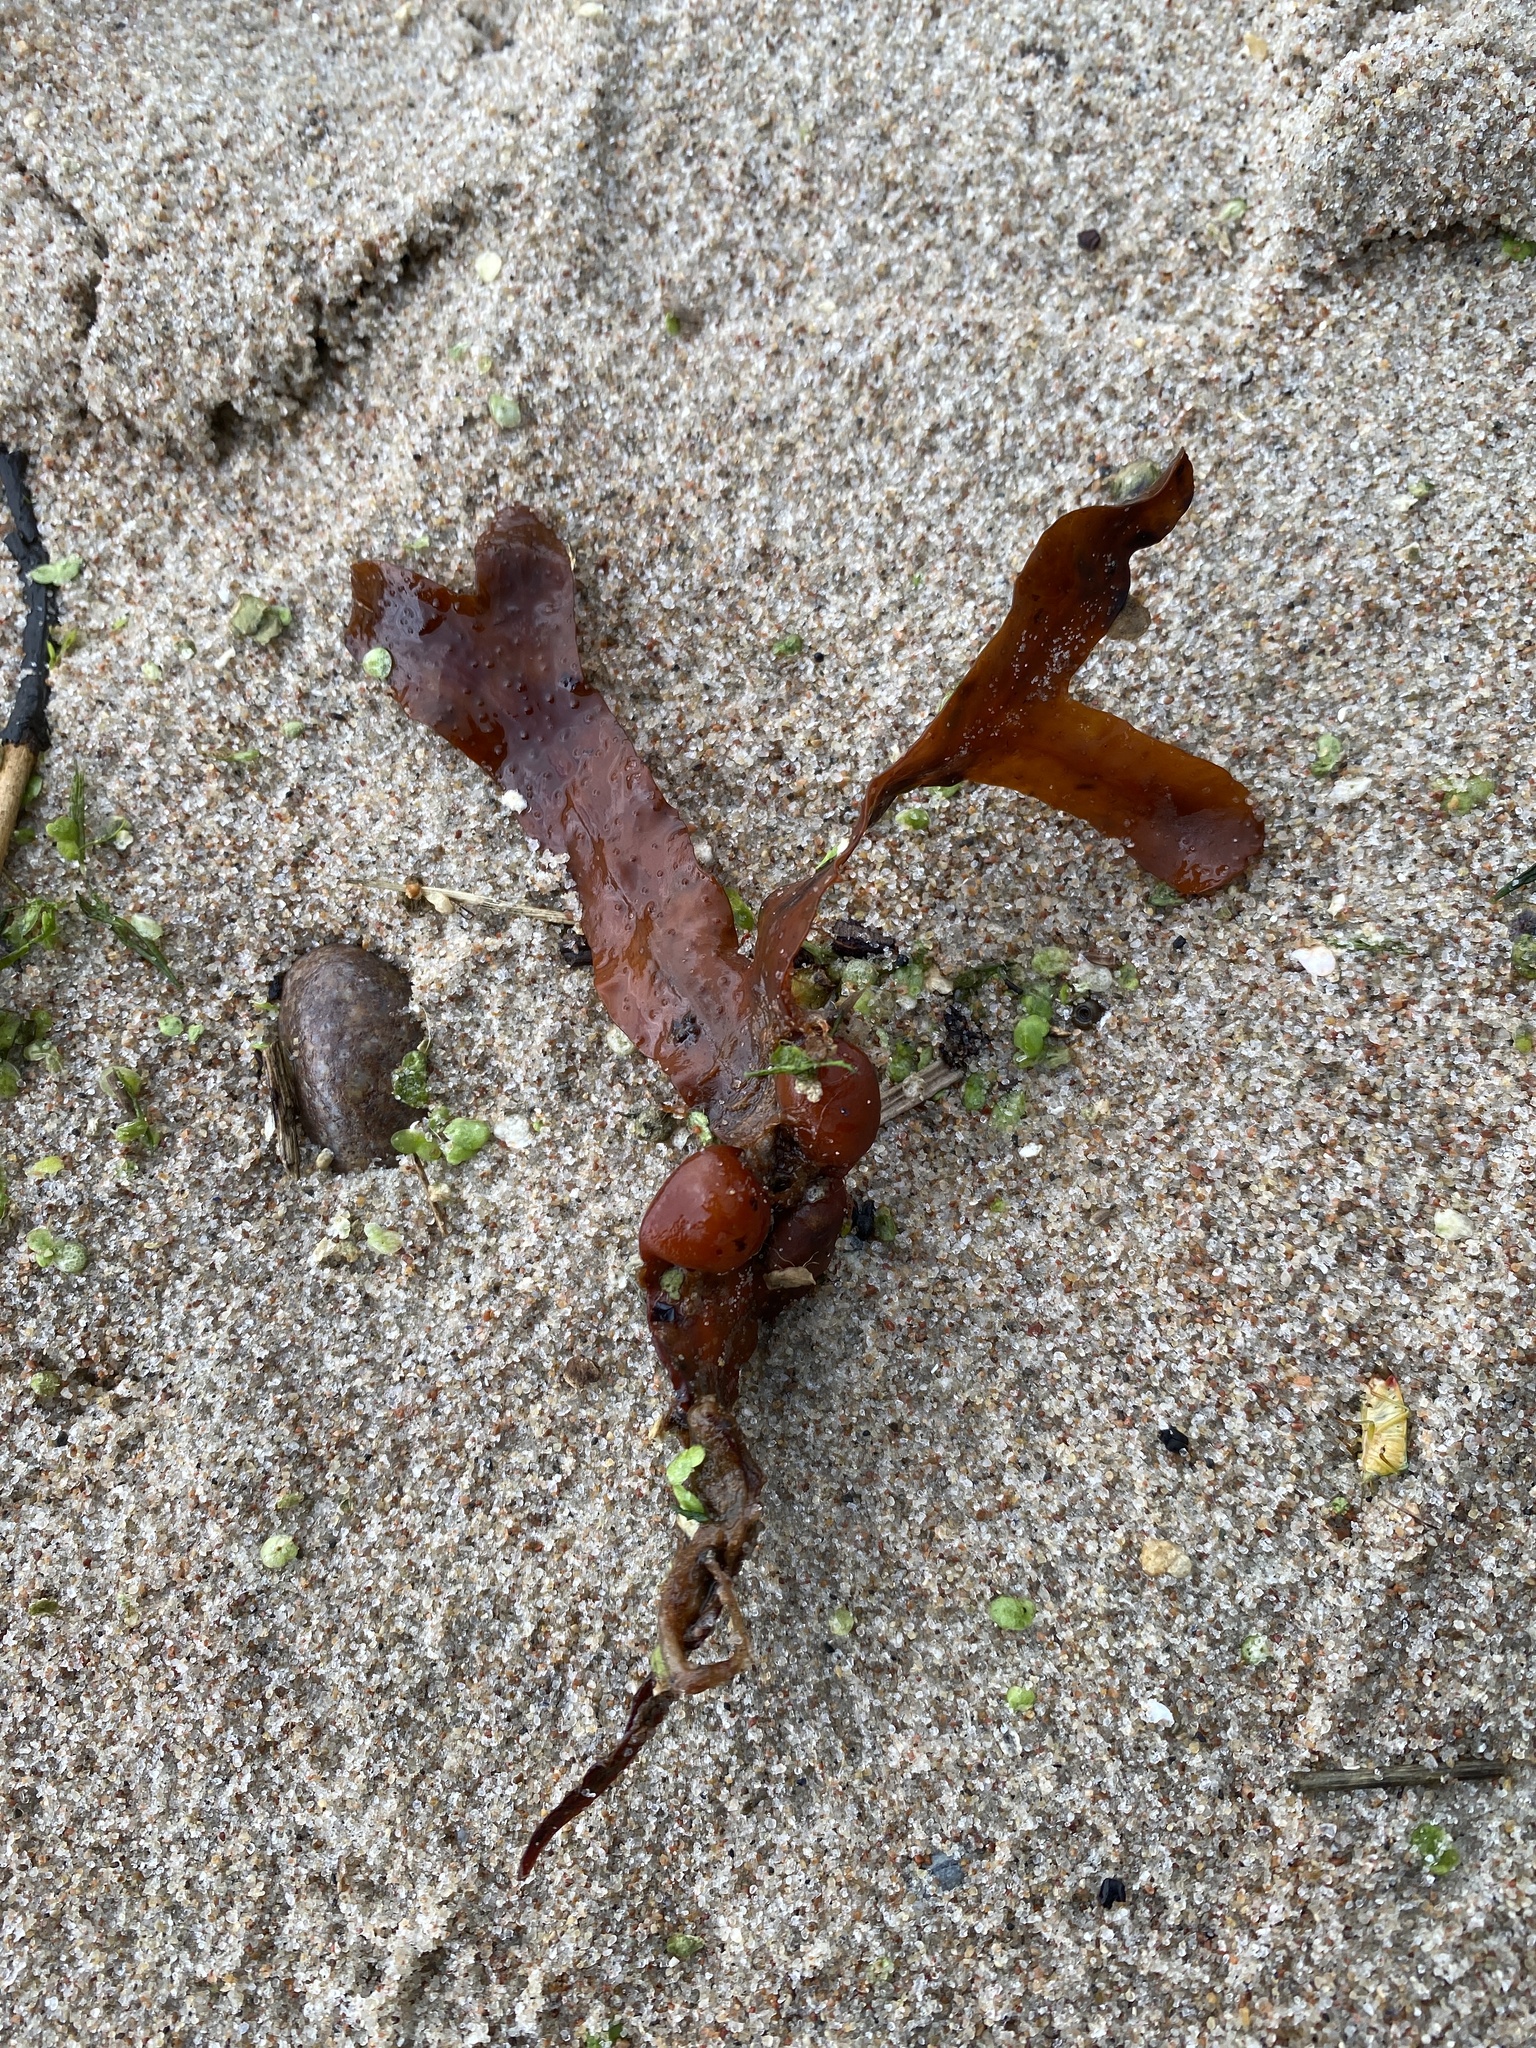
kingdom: Chromista
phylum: Ochrophyta
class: Phaeophyceae
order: Fucales
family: Fucaceae
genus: Fucus
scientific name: Fucus vesiculosus
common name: Bladder wrack
